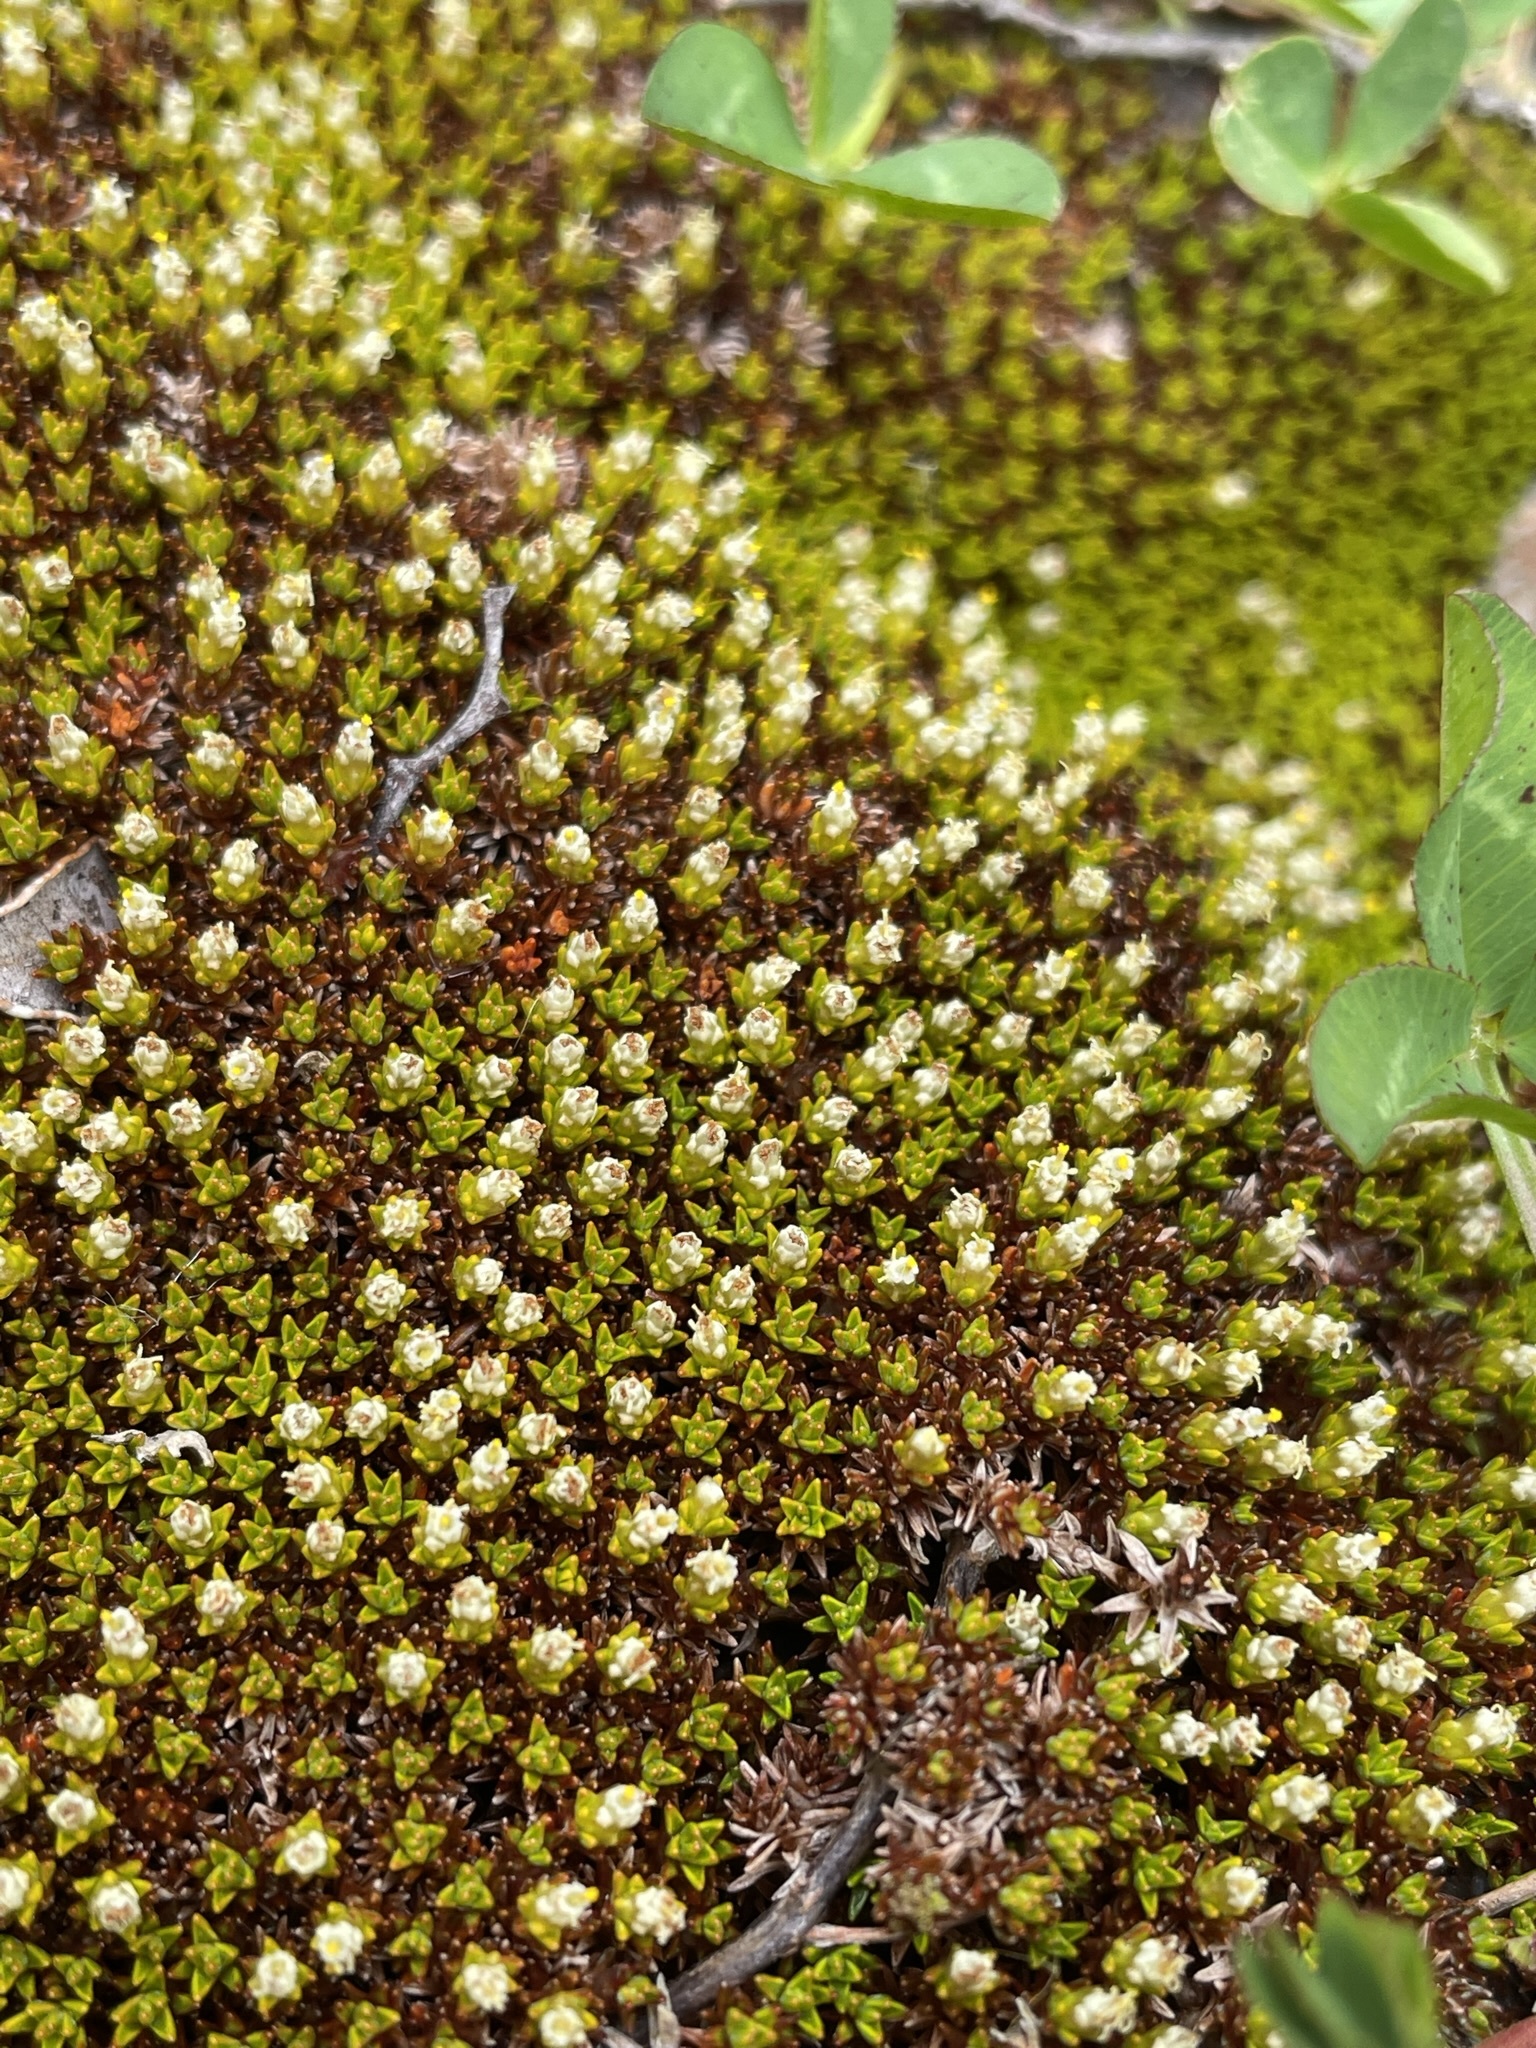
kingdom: Plantae
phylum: Tracheophyta
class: Magnoliopsida
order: Asterales
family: Asteraceae
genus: Raoulia
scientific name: Raoulia haastii
